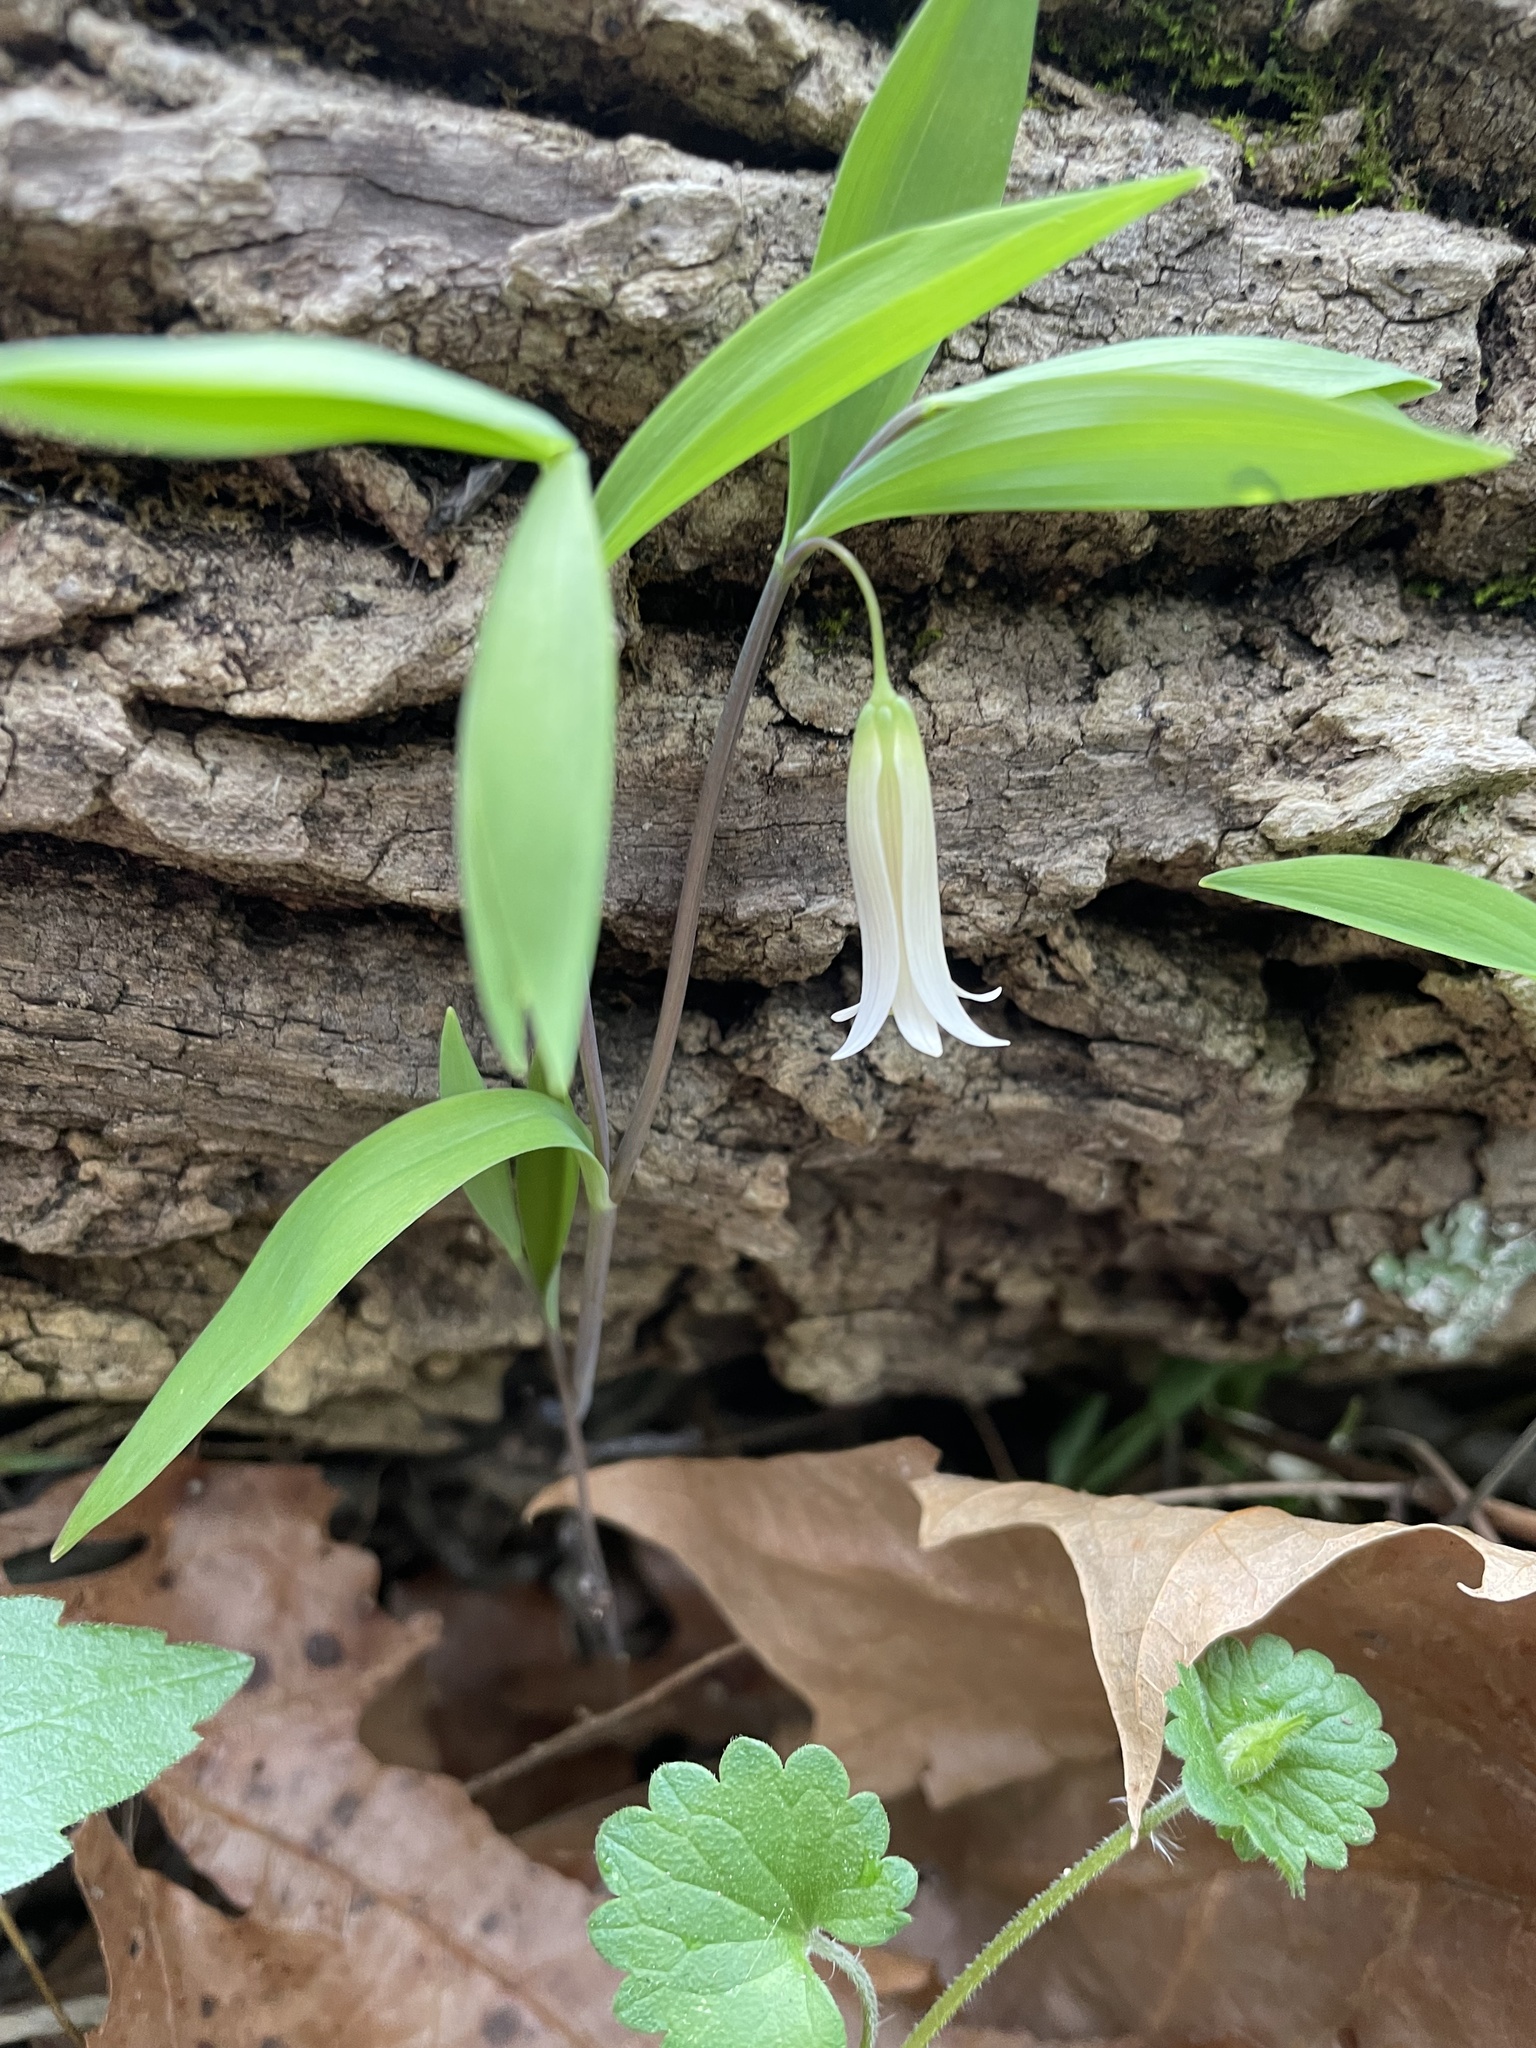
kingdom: Plantae
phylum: Tracheophyta
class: Liliopsida
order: Liliales
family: Colchicaceae
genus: Uvularia
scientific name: Uvularia sessilifolia
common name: Straw-lily
